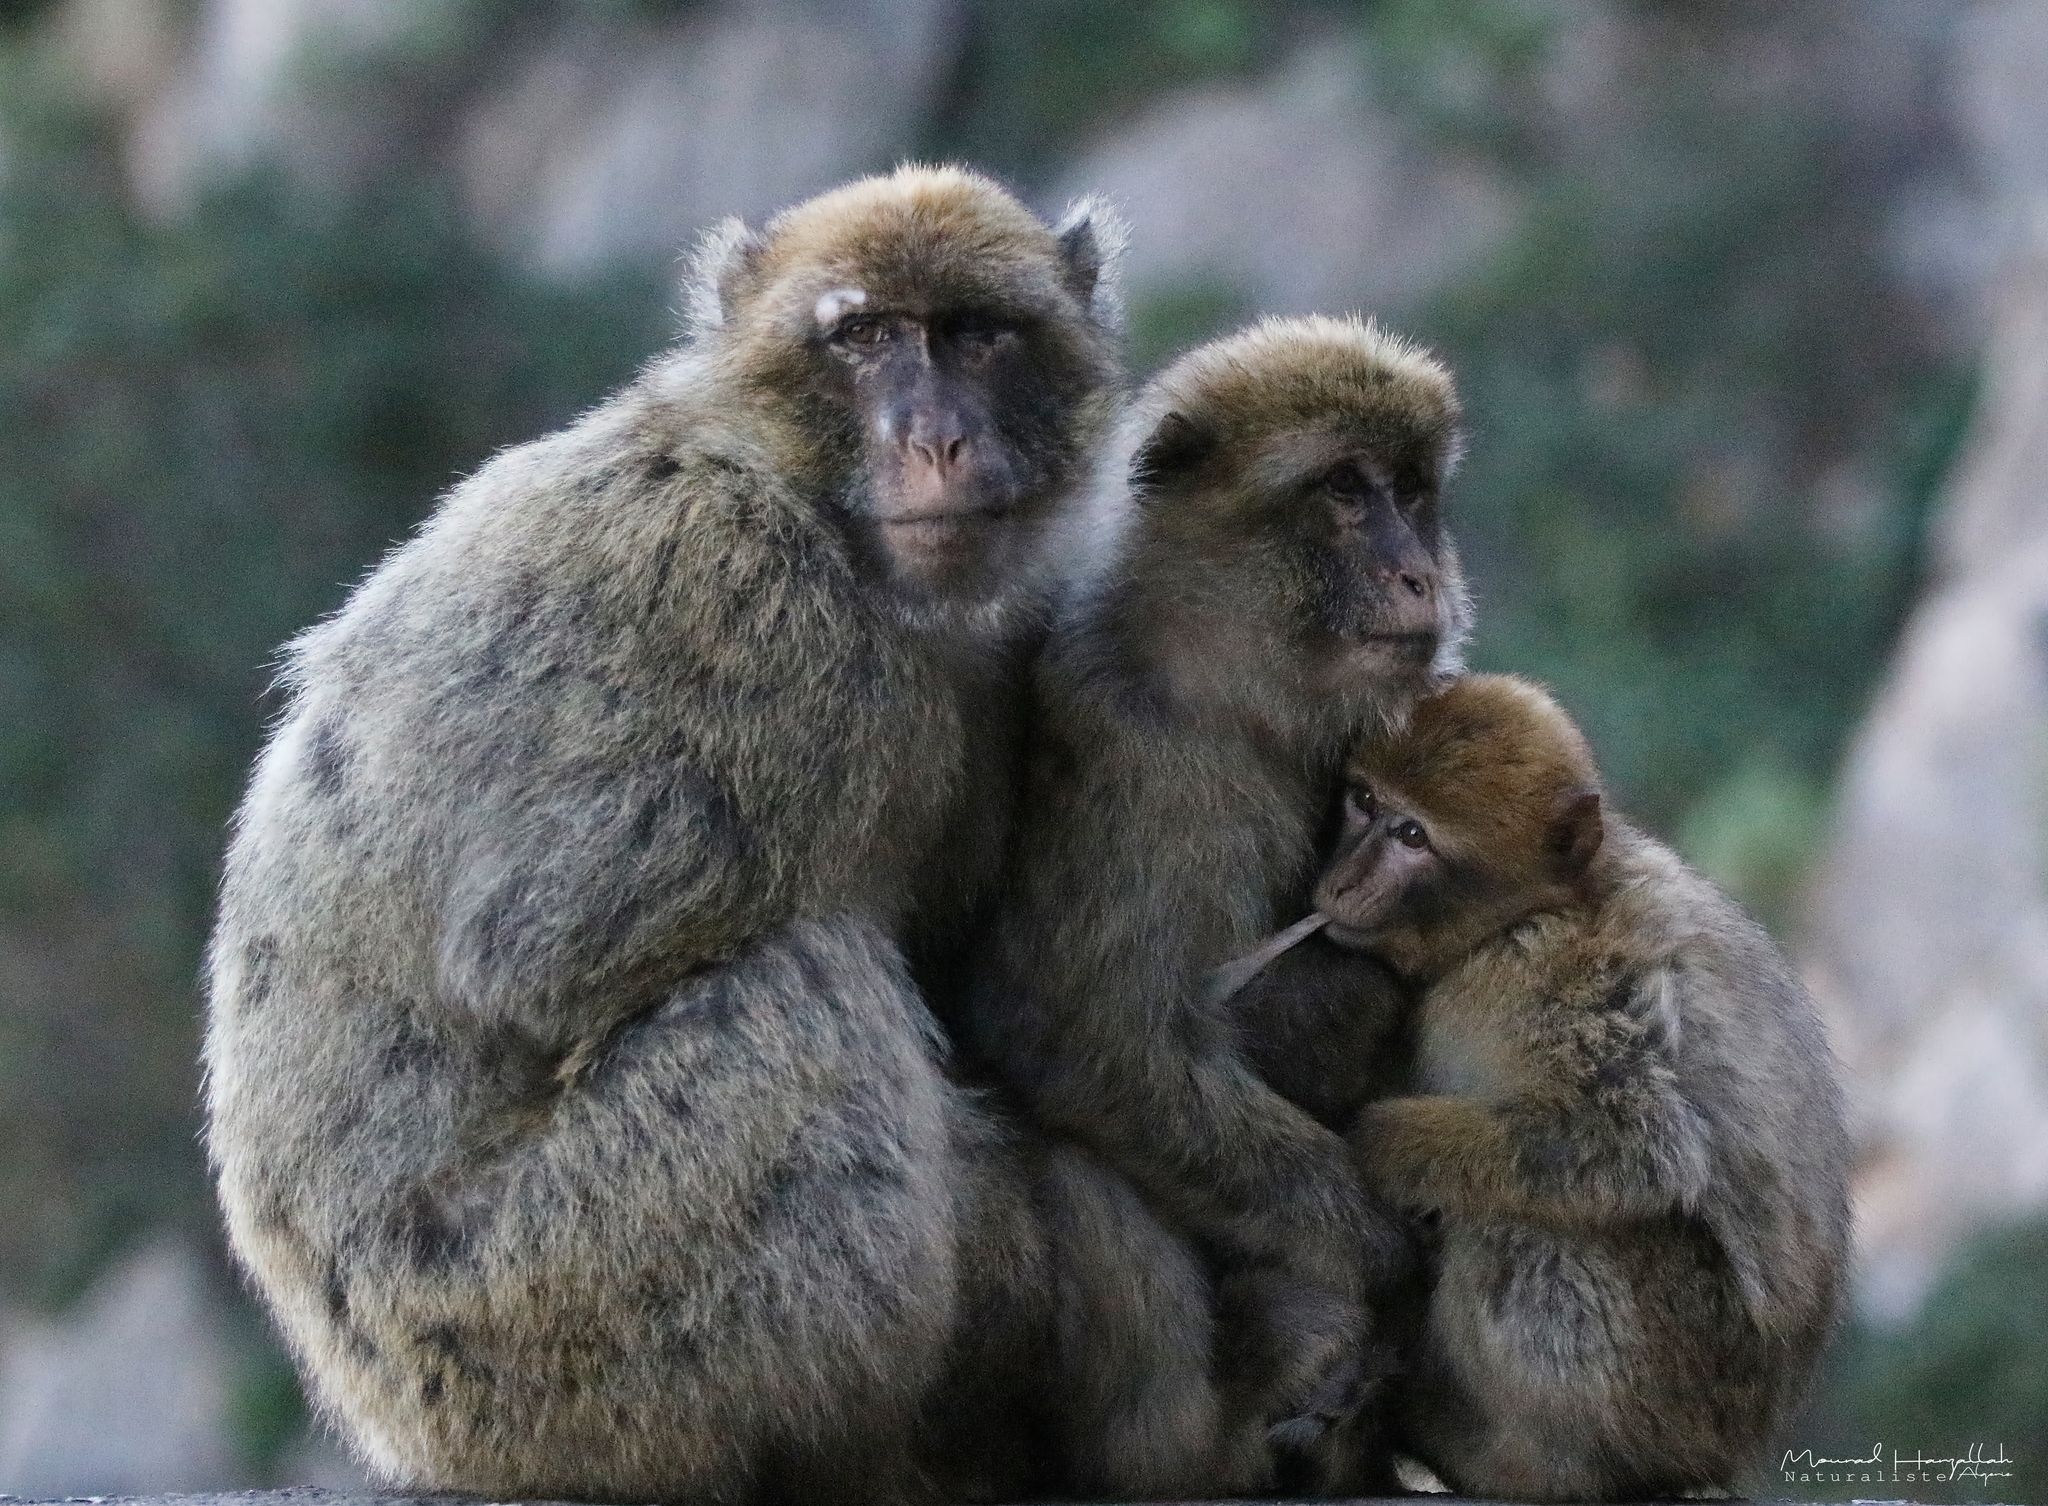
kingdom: Animalia
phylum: Chordata
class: Mammalia
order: Primates
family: Cercopithecidae
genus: Macaca
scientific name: Macaca sylvanus
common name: Barbary macaque
